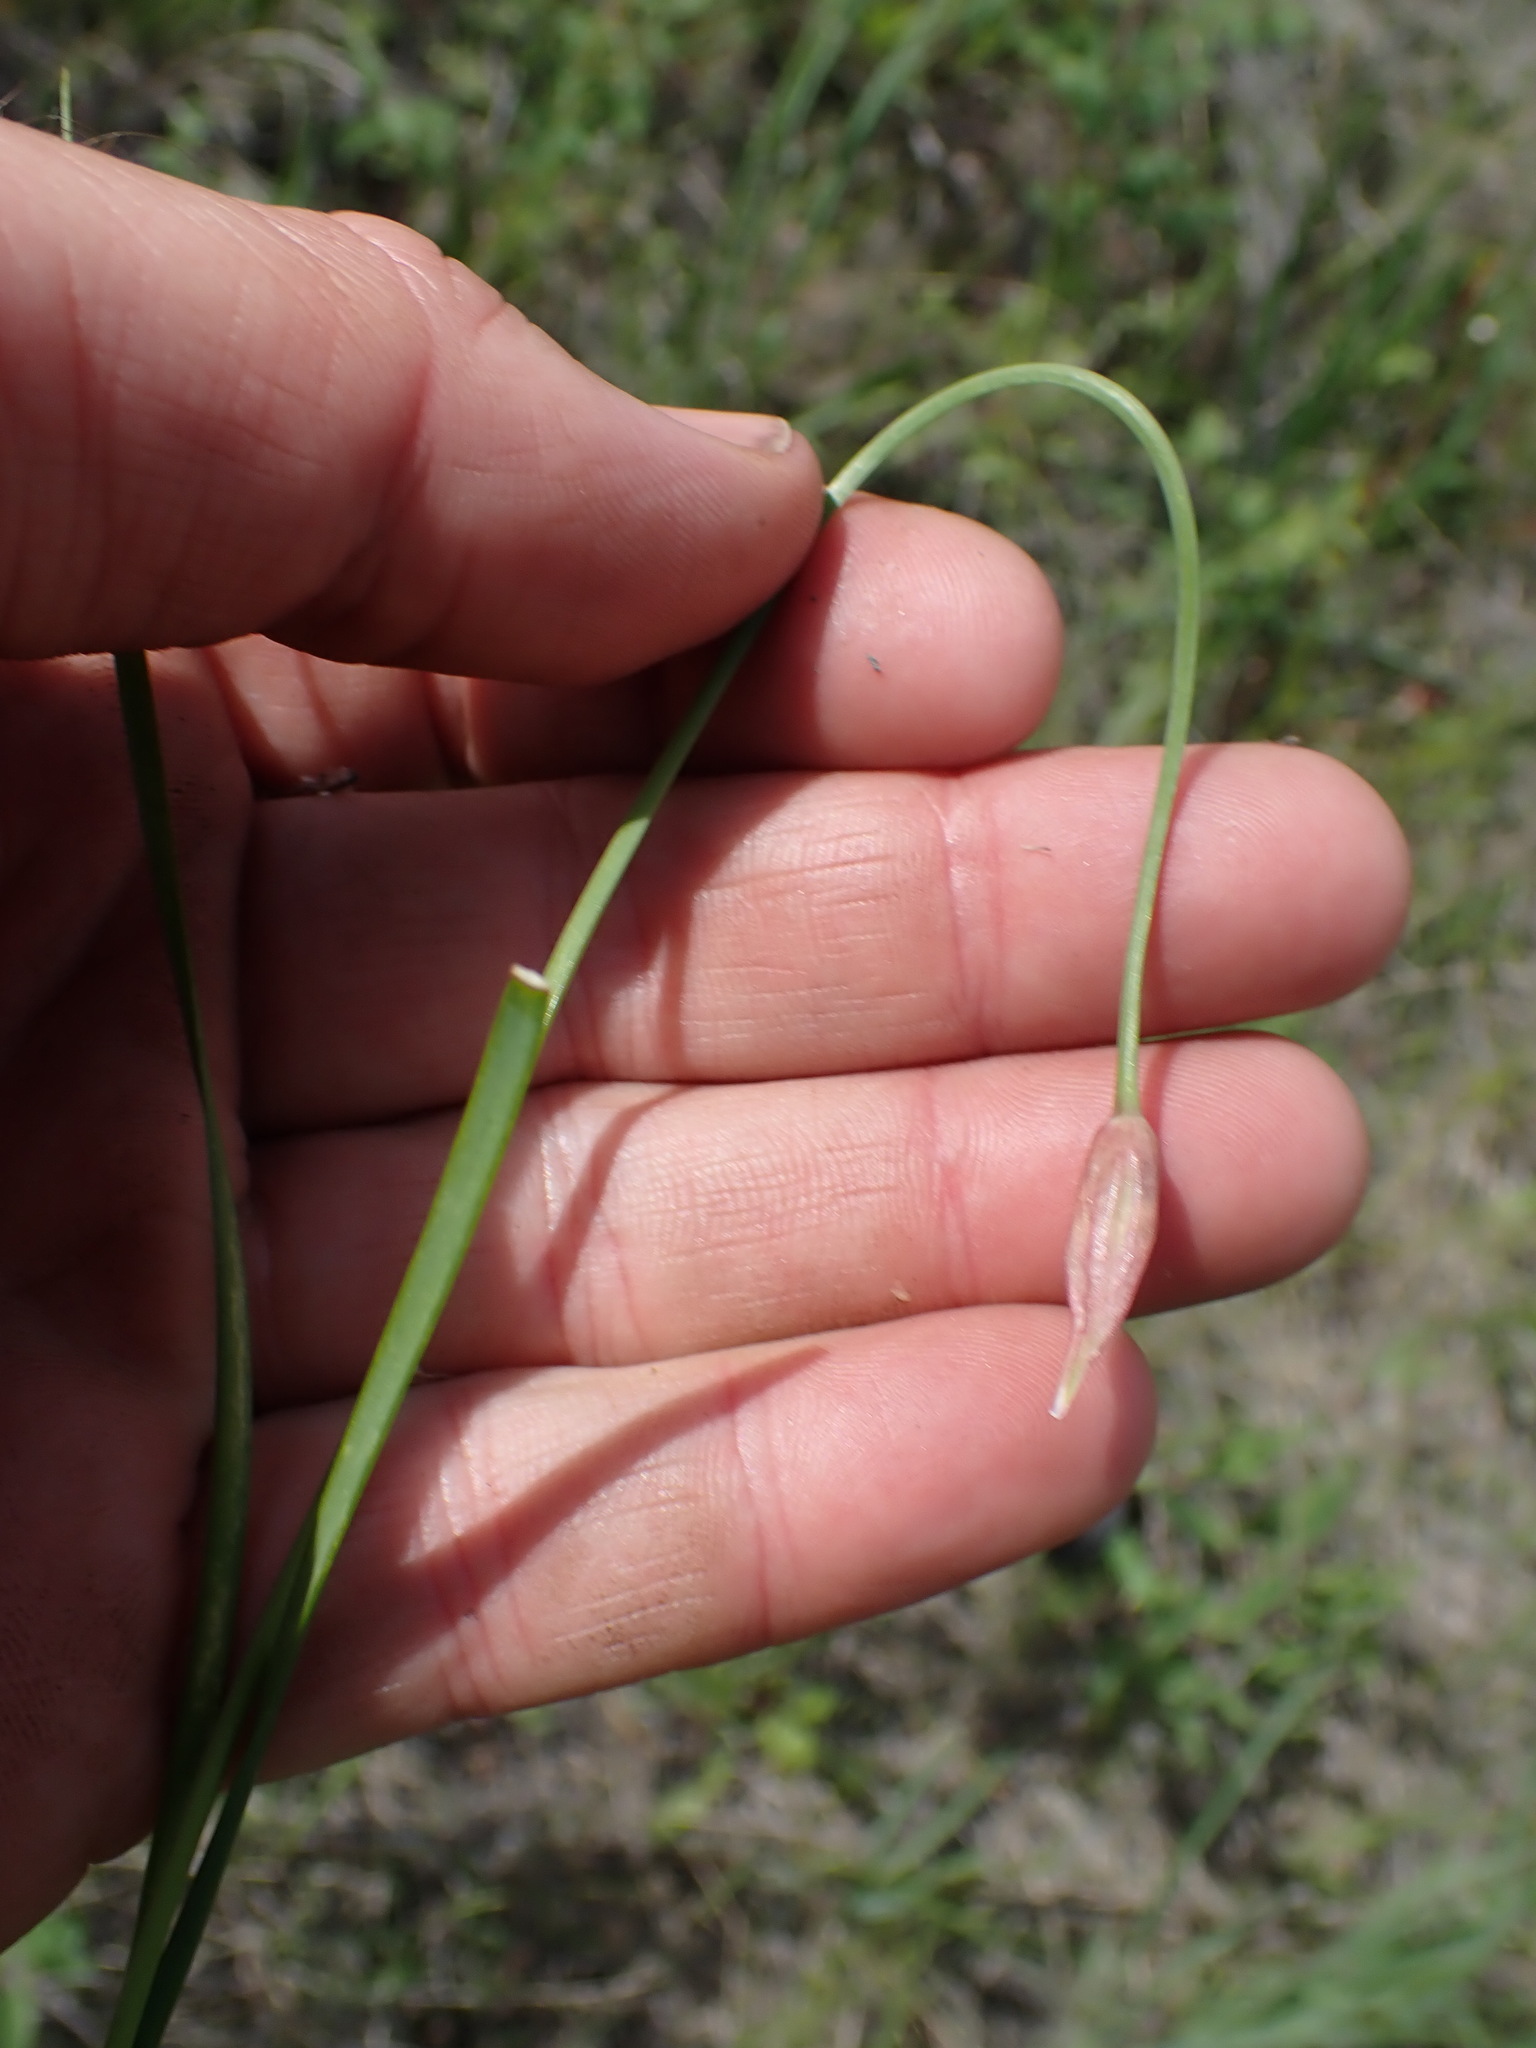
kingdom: Plantae
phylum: Tracheophyta
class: Liliopsida
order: Asparagales
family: Amaryllidaceae
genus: Allium
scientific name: Allium cernuum
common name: Nodding onion
